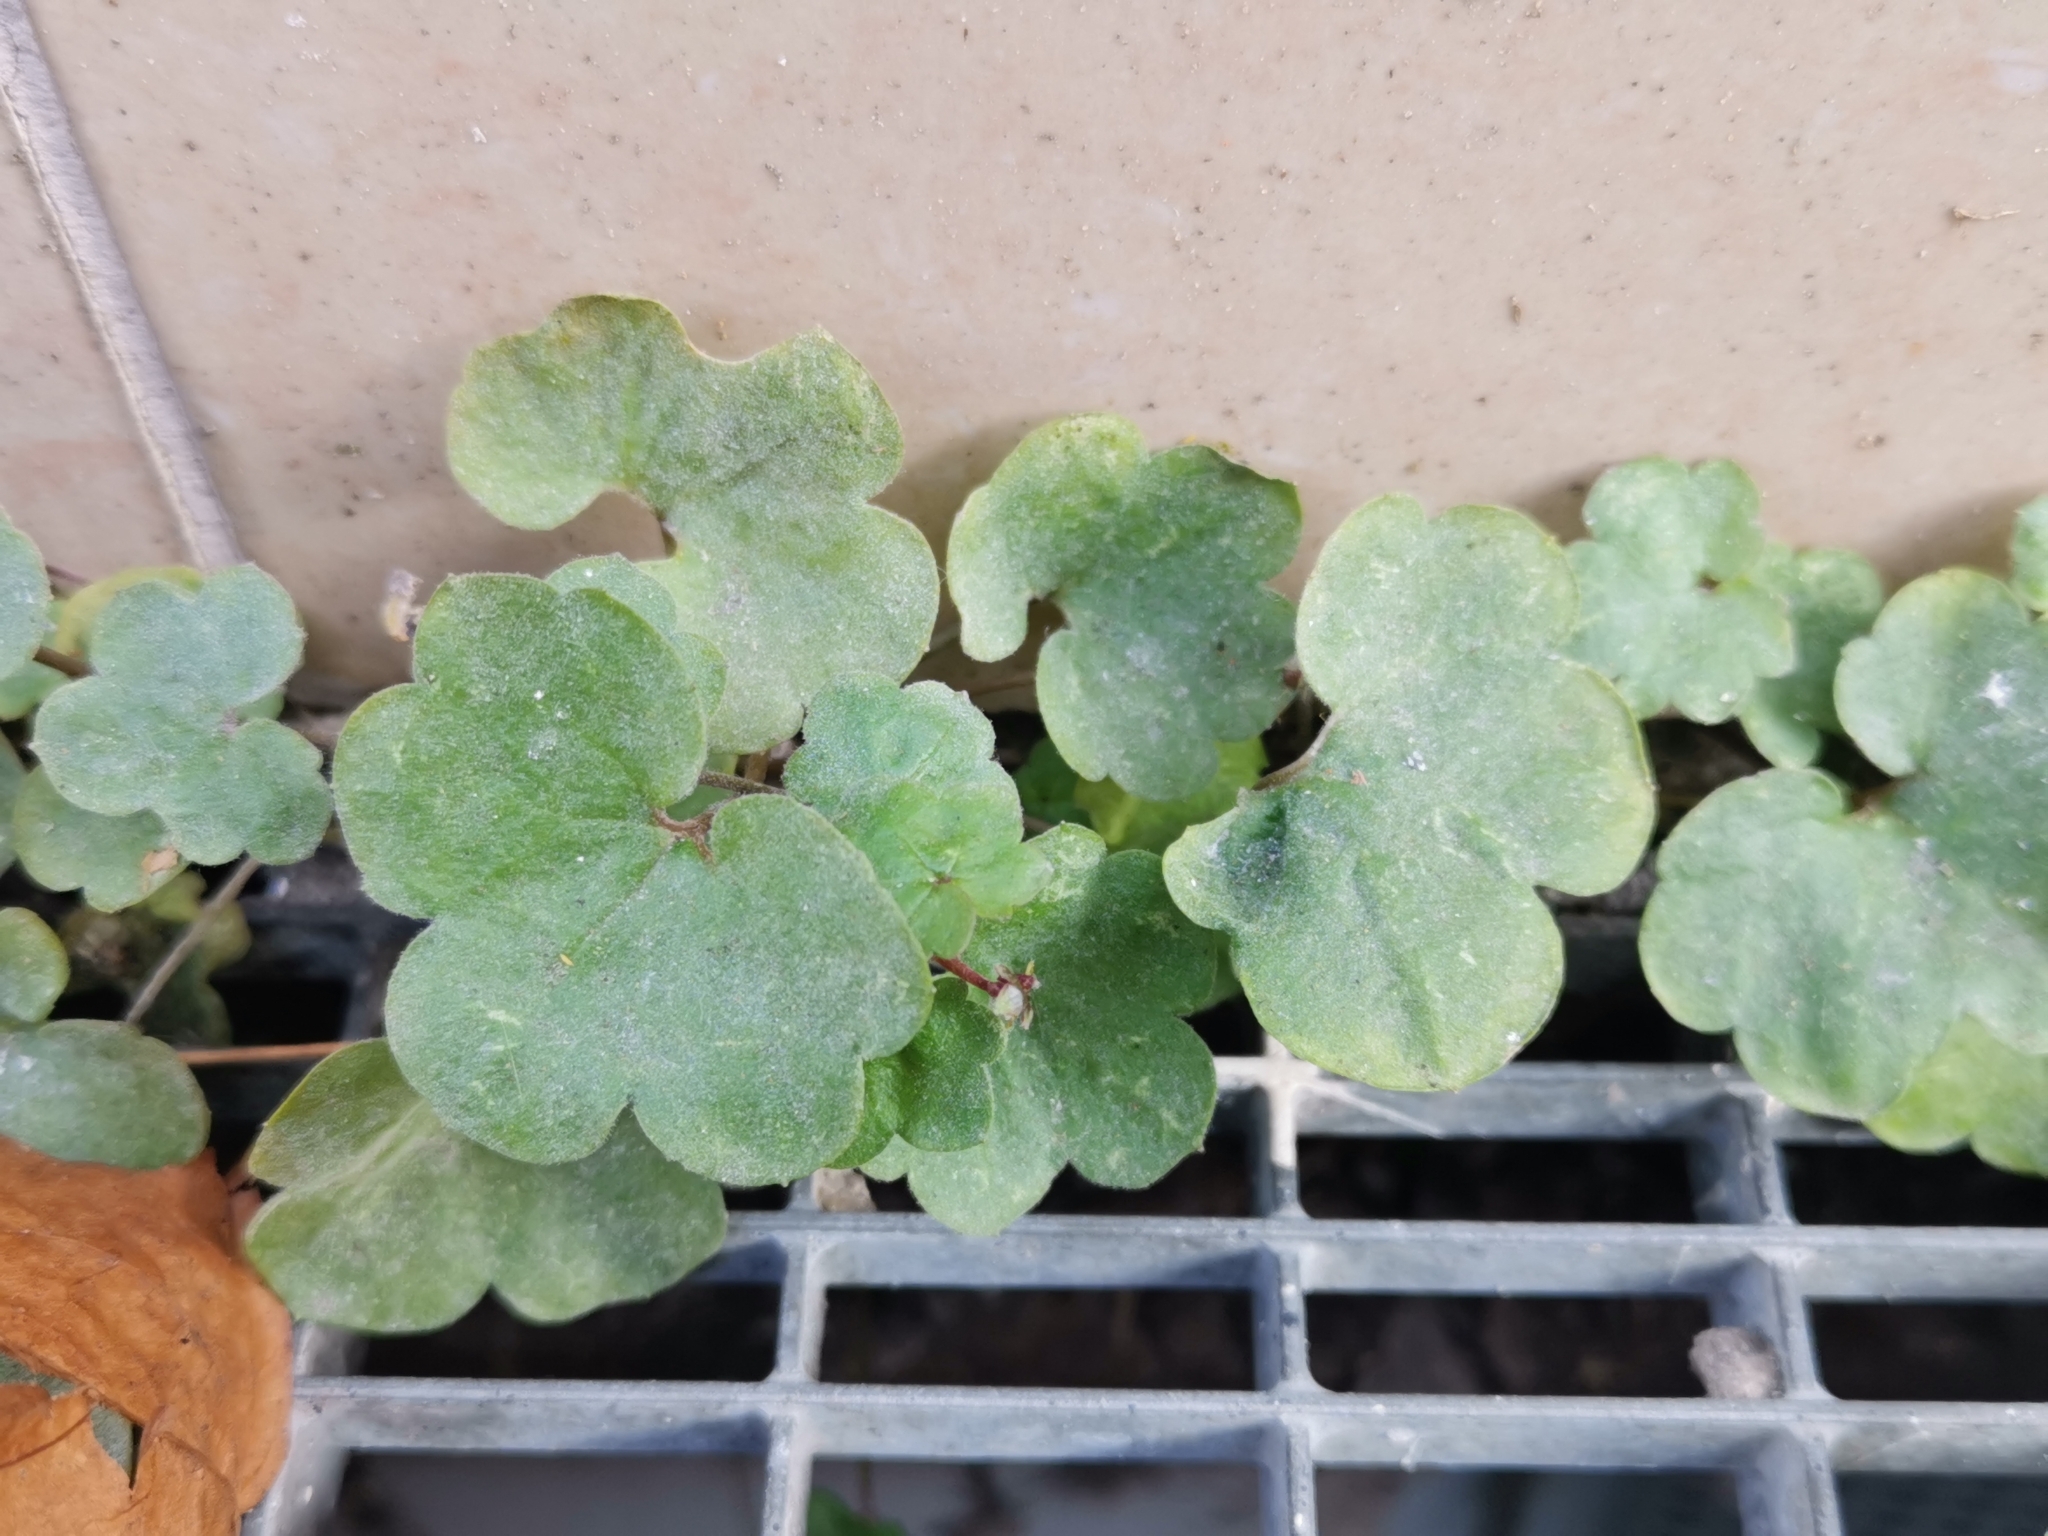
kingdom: Plantae
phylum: Tracheophyta
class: Magnoliopsida
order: Lamiales
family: Plantaginaceae
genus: Cymbalaria
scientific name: Cymbalaria muralis
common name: Ivy-leaved toadflax
